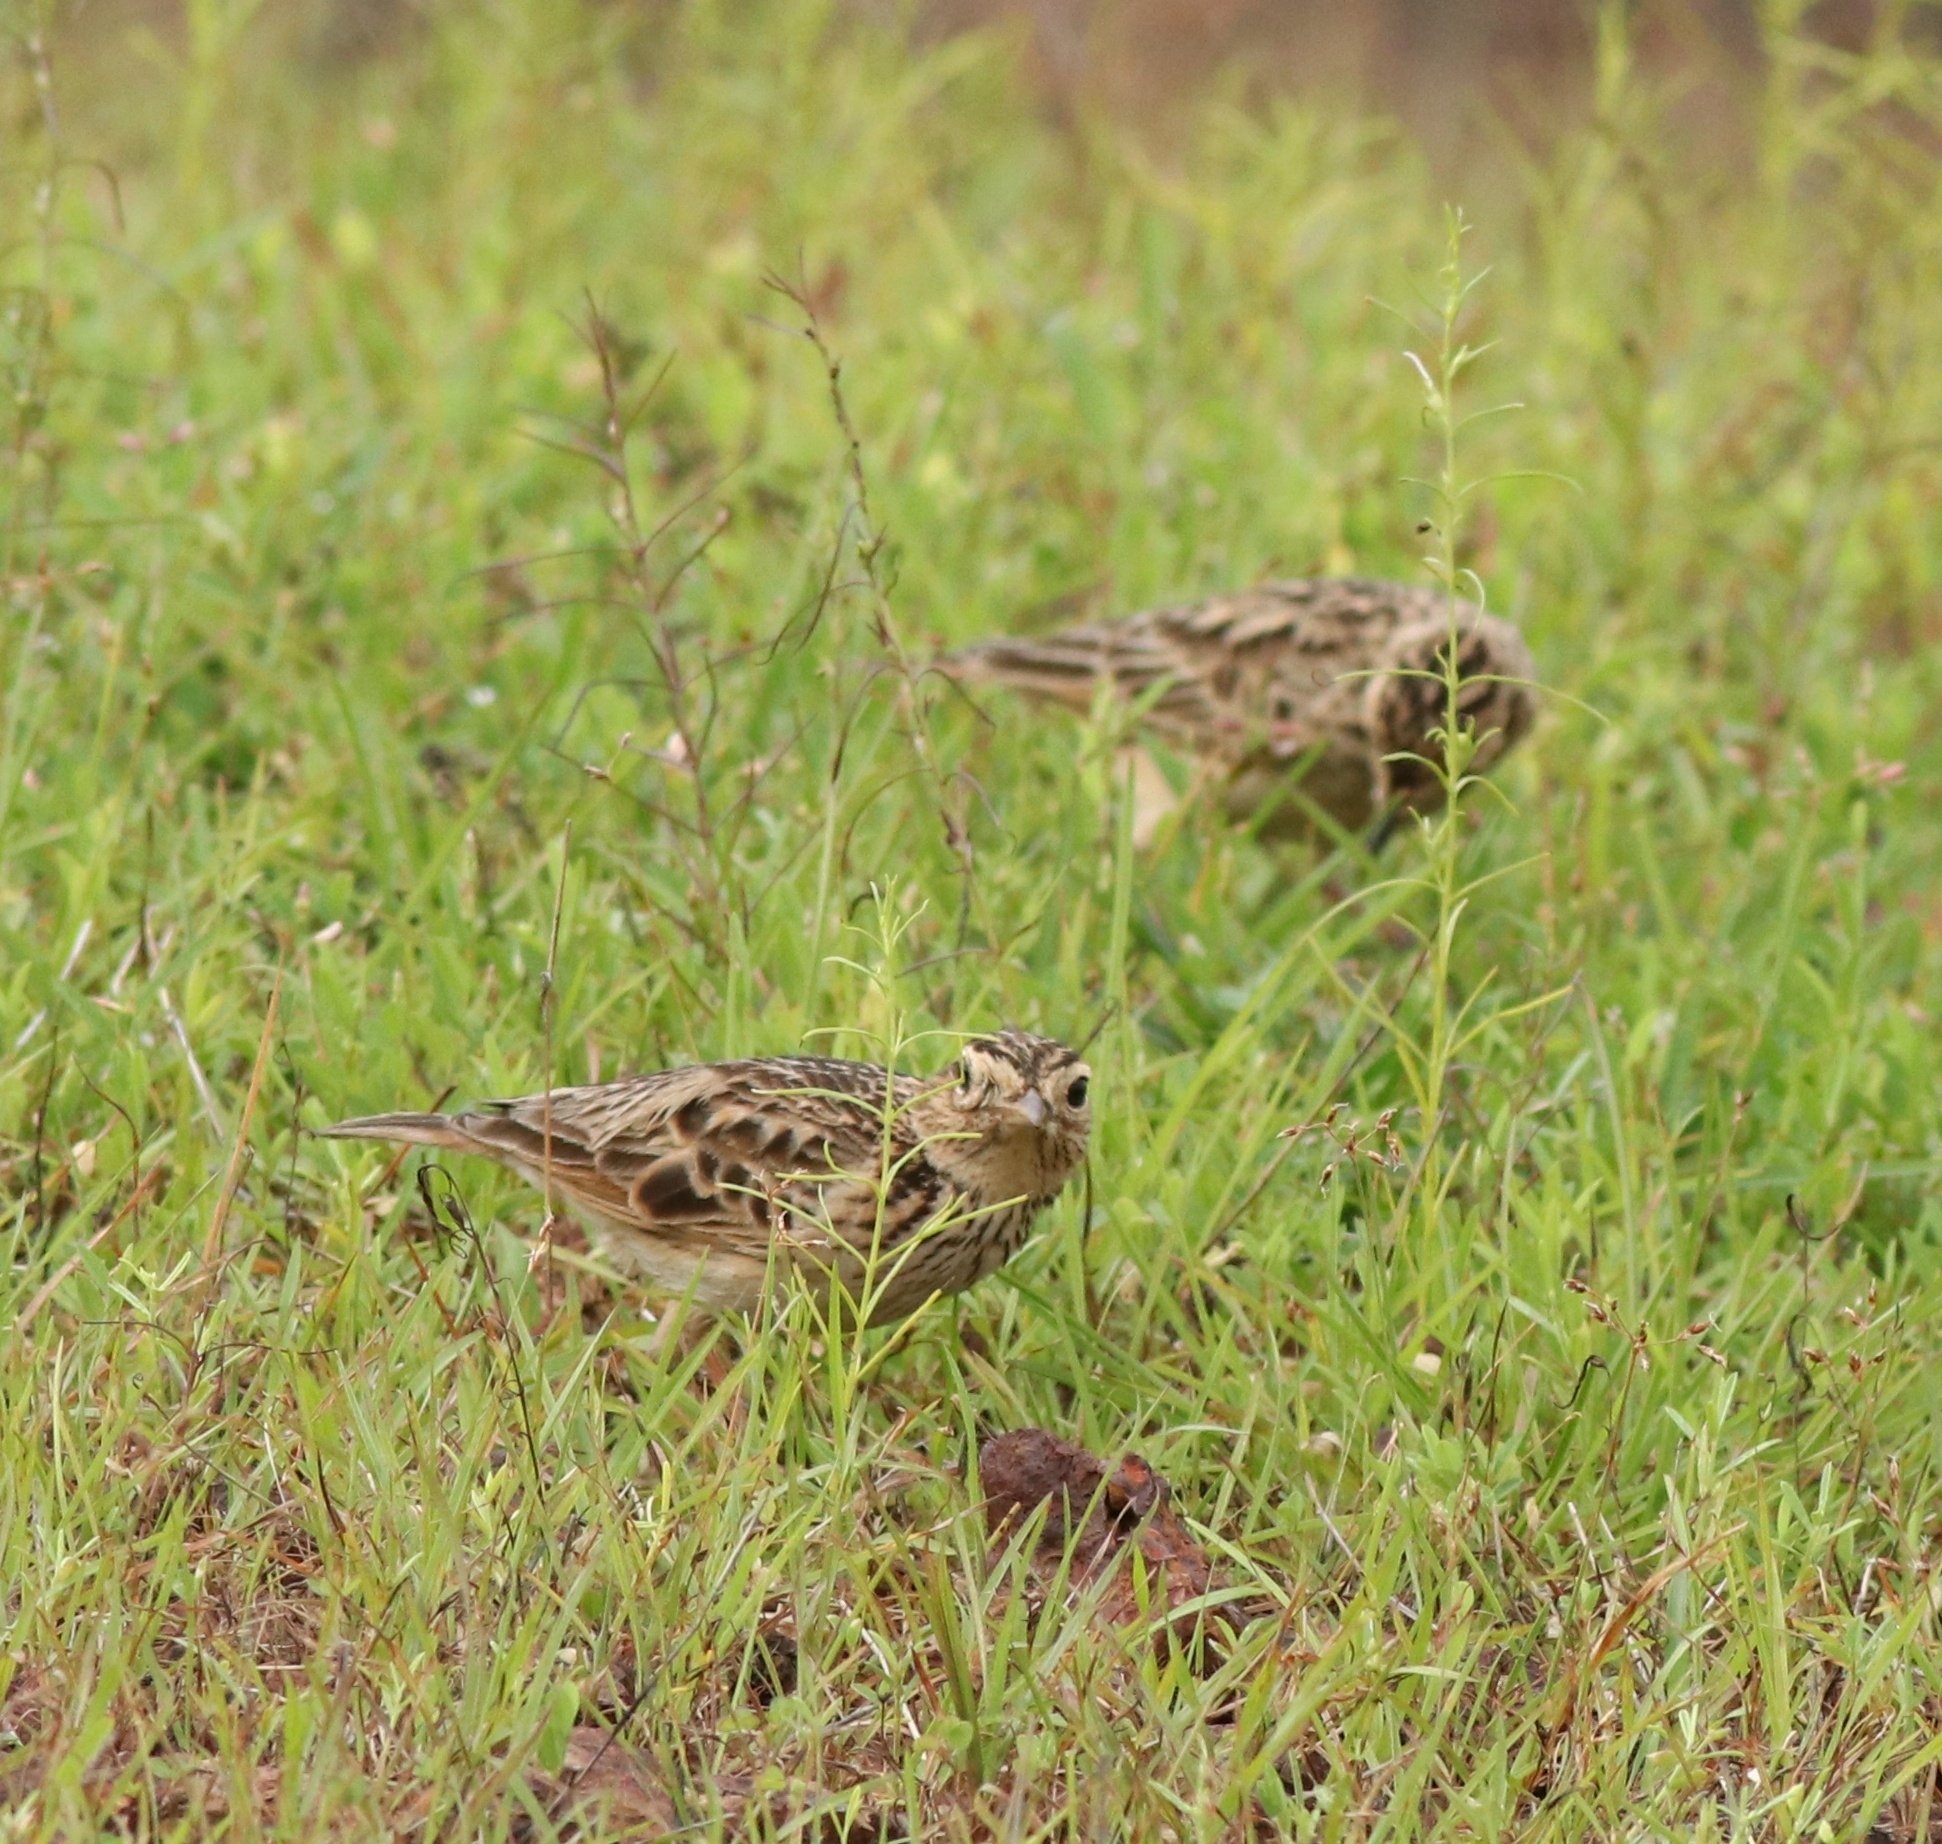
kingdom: Animalia
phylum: Chordata
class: Aves
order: Passeriformes
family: Alaudidae
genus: Alauda
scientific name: Alauda gulgula
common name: Oriental skylark
